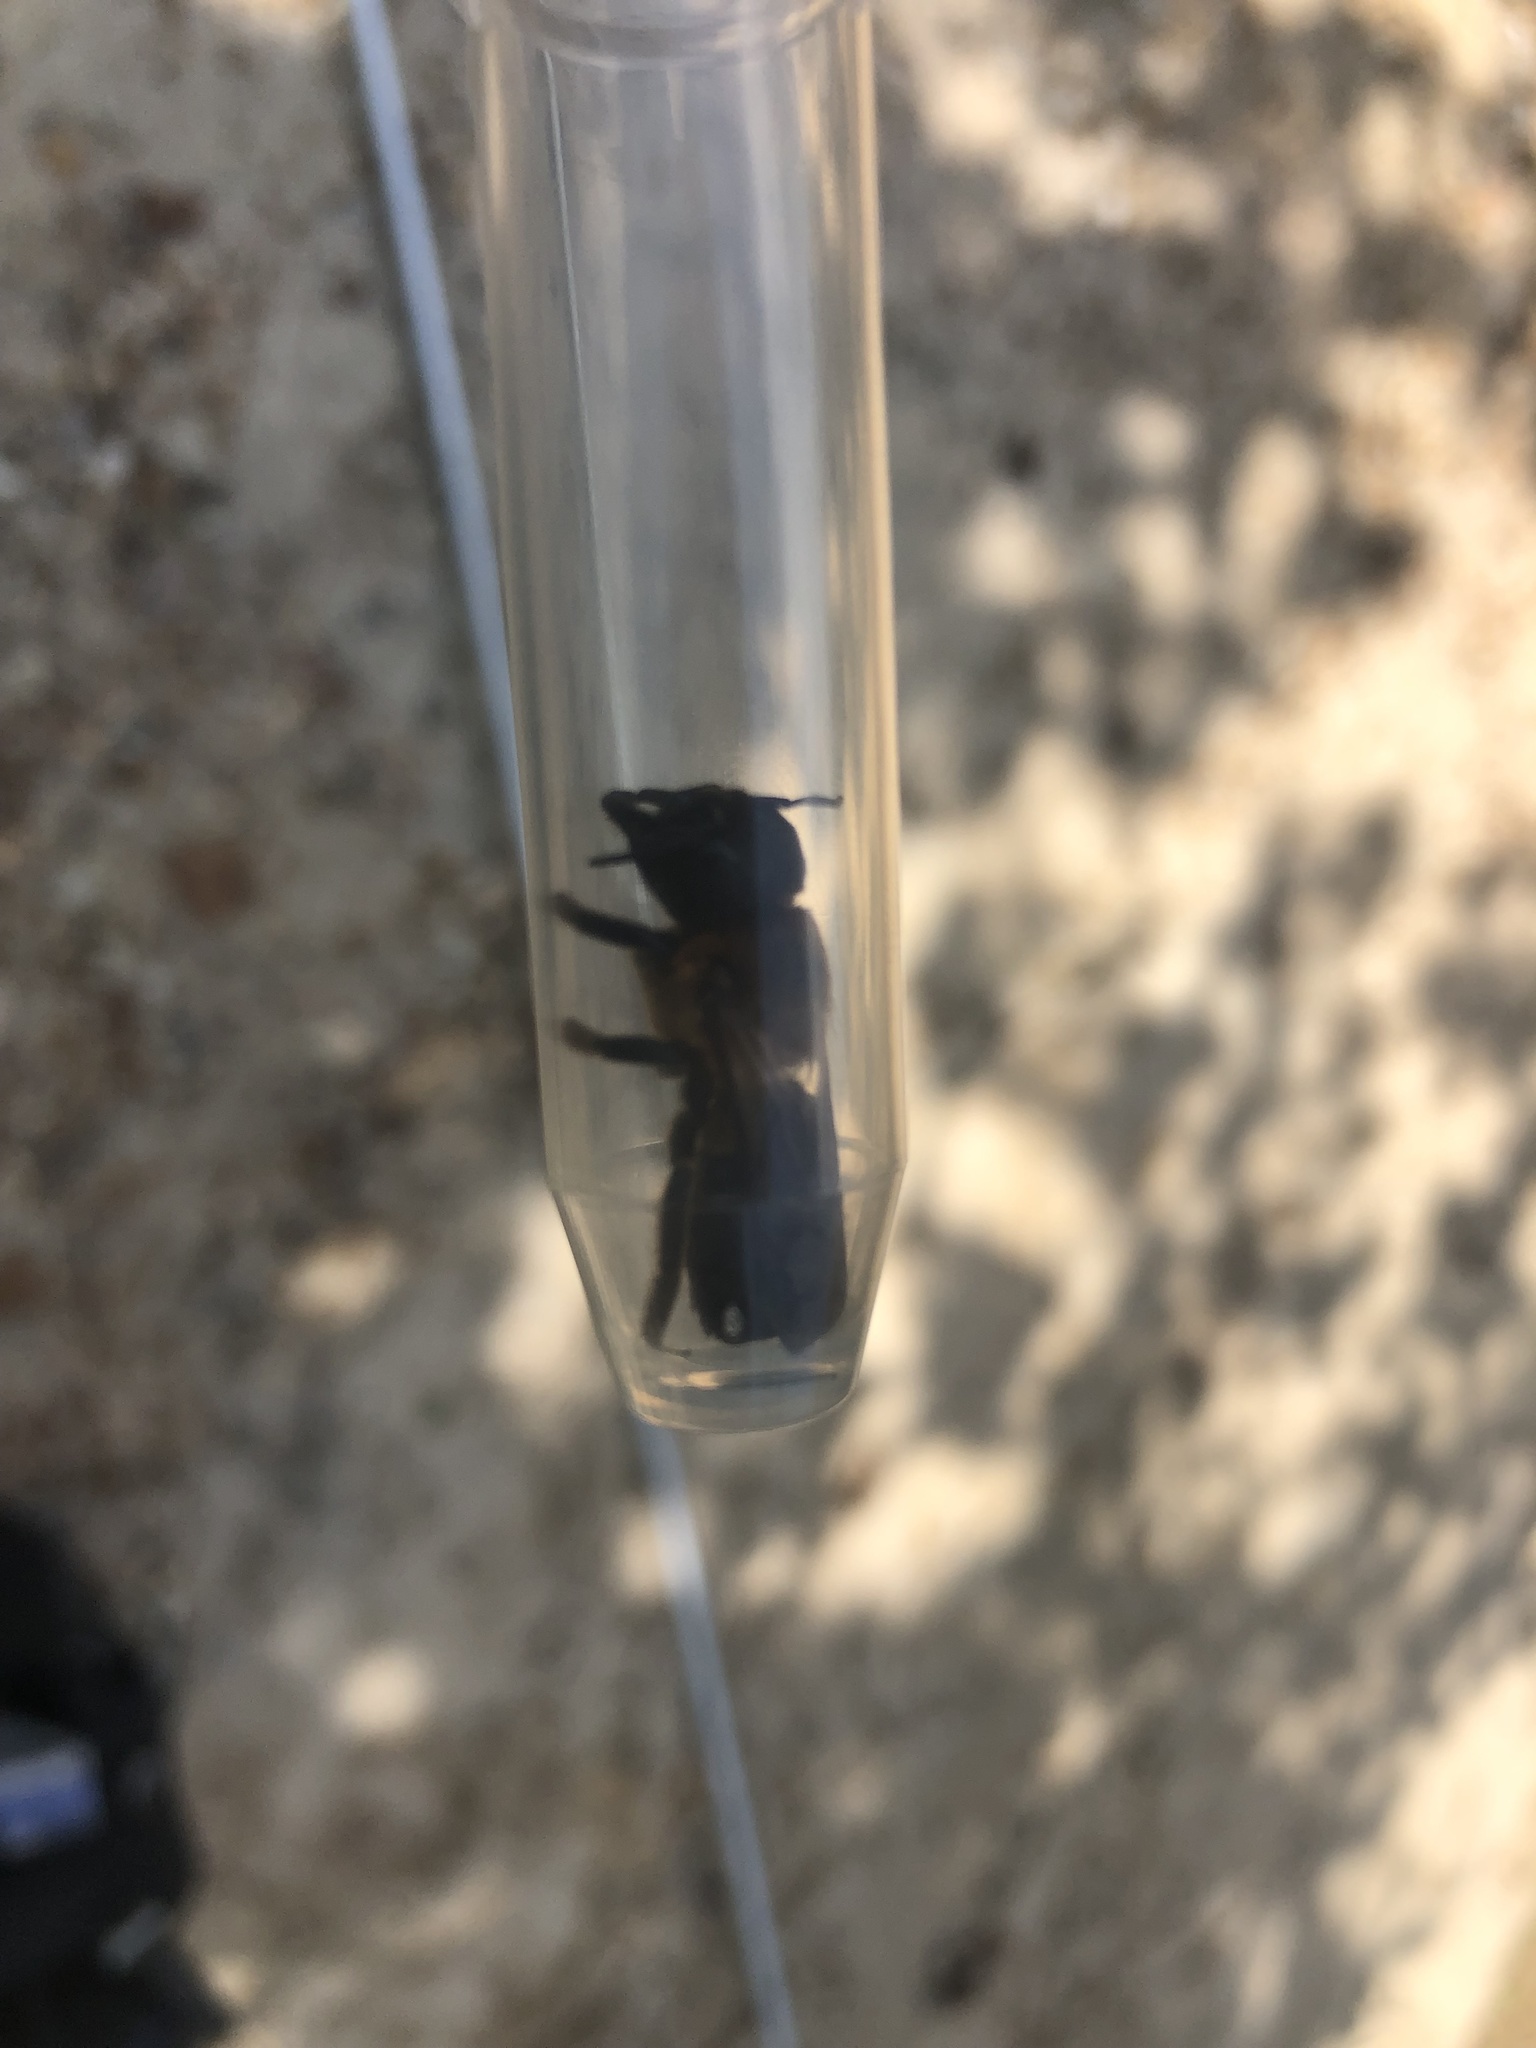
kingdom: Animalia
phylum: Arthropoda
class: Insecta
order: Hymenoptera
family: Megachilidae
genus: Megachile
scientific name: Megachile sculpturalis
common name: Sculptured resin bee
